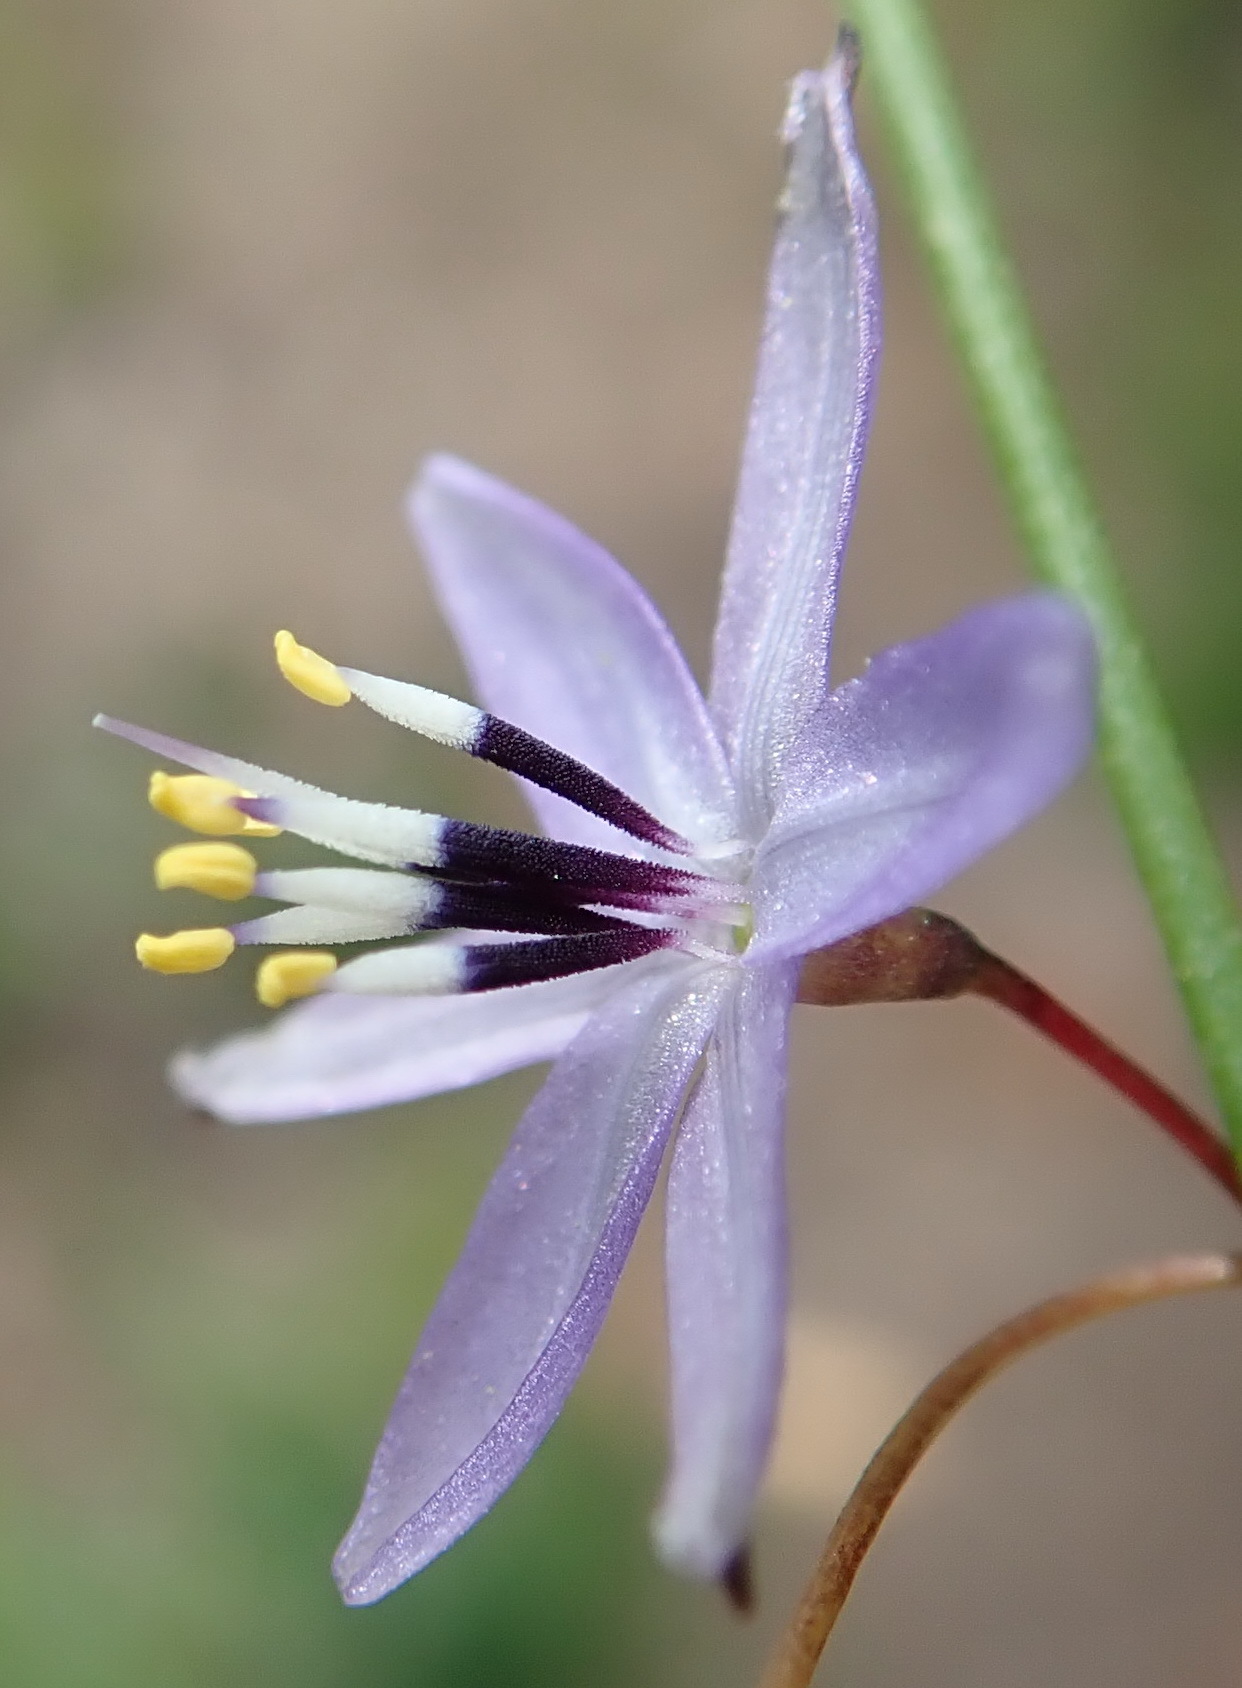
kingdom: Plantae
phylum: Tracheophyta
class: Liliopsida
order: Asparagales
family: Asphodelaceae
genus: Caesia
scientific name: Caesia contorta
